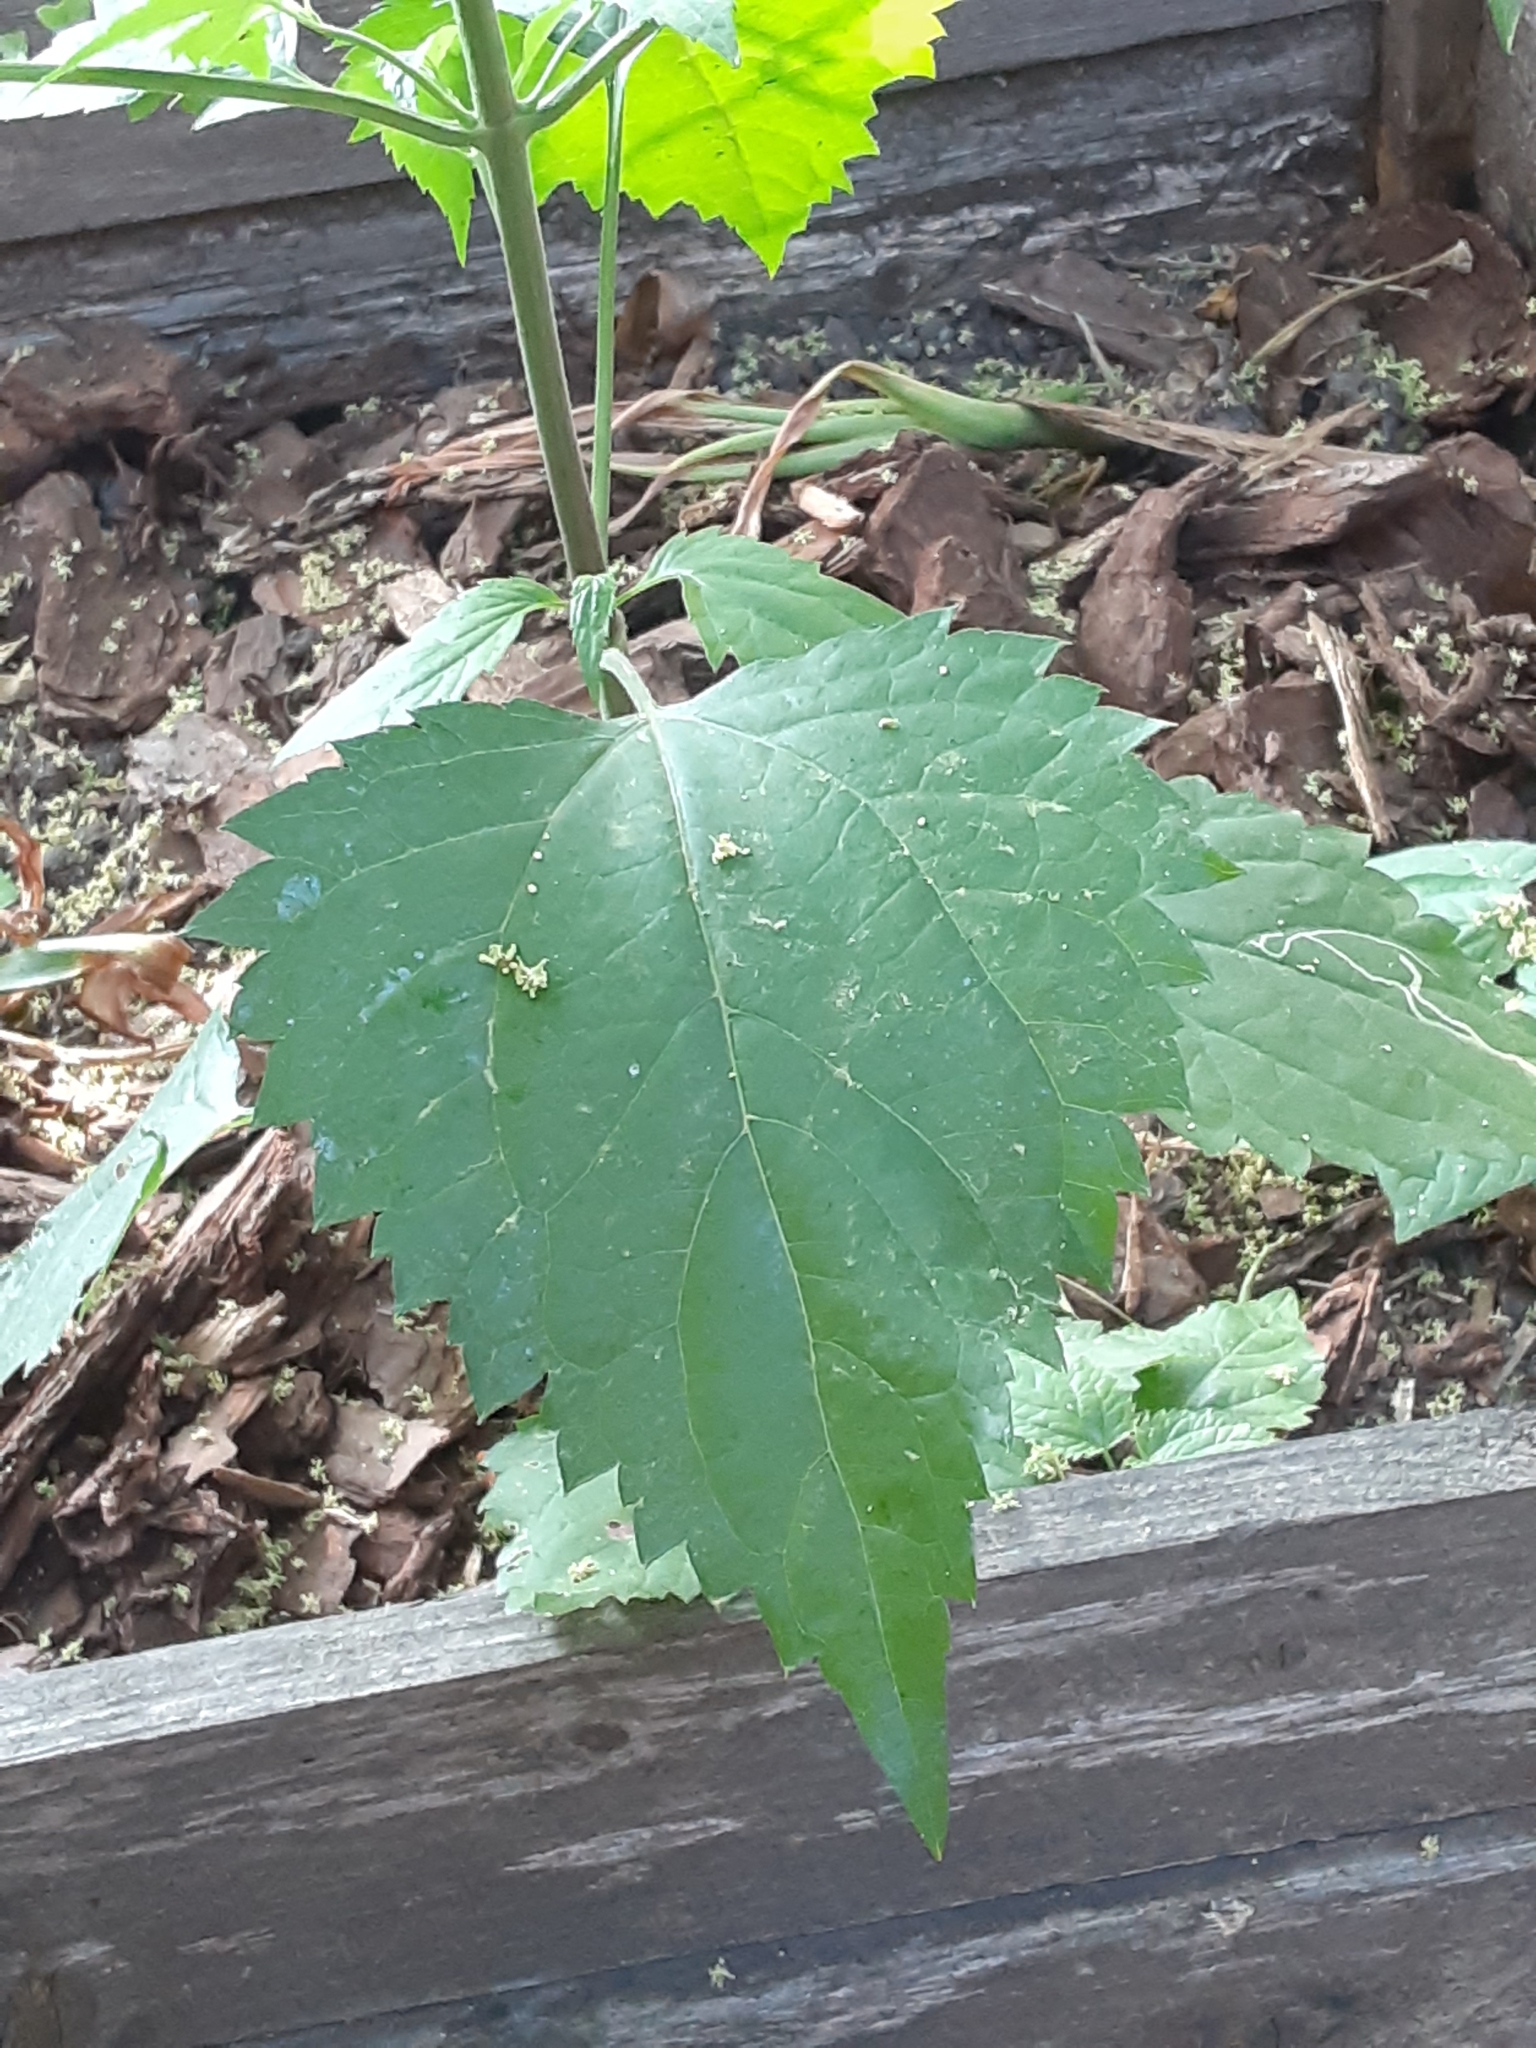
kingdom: Plantae
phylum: Tracheophyta
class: Magnoliopsida
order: Asterales
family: Asteraceae
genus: Ageratina
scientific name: Ageratina altissima
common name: White snakeroot
